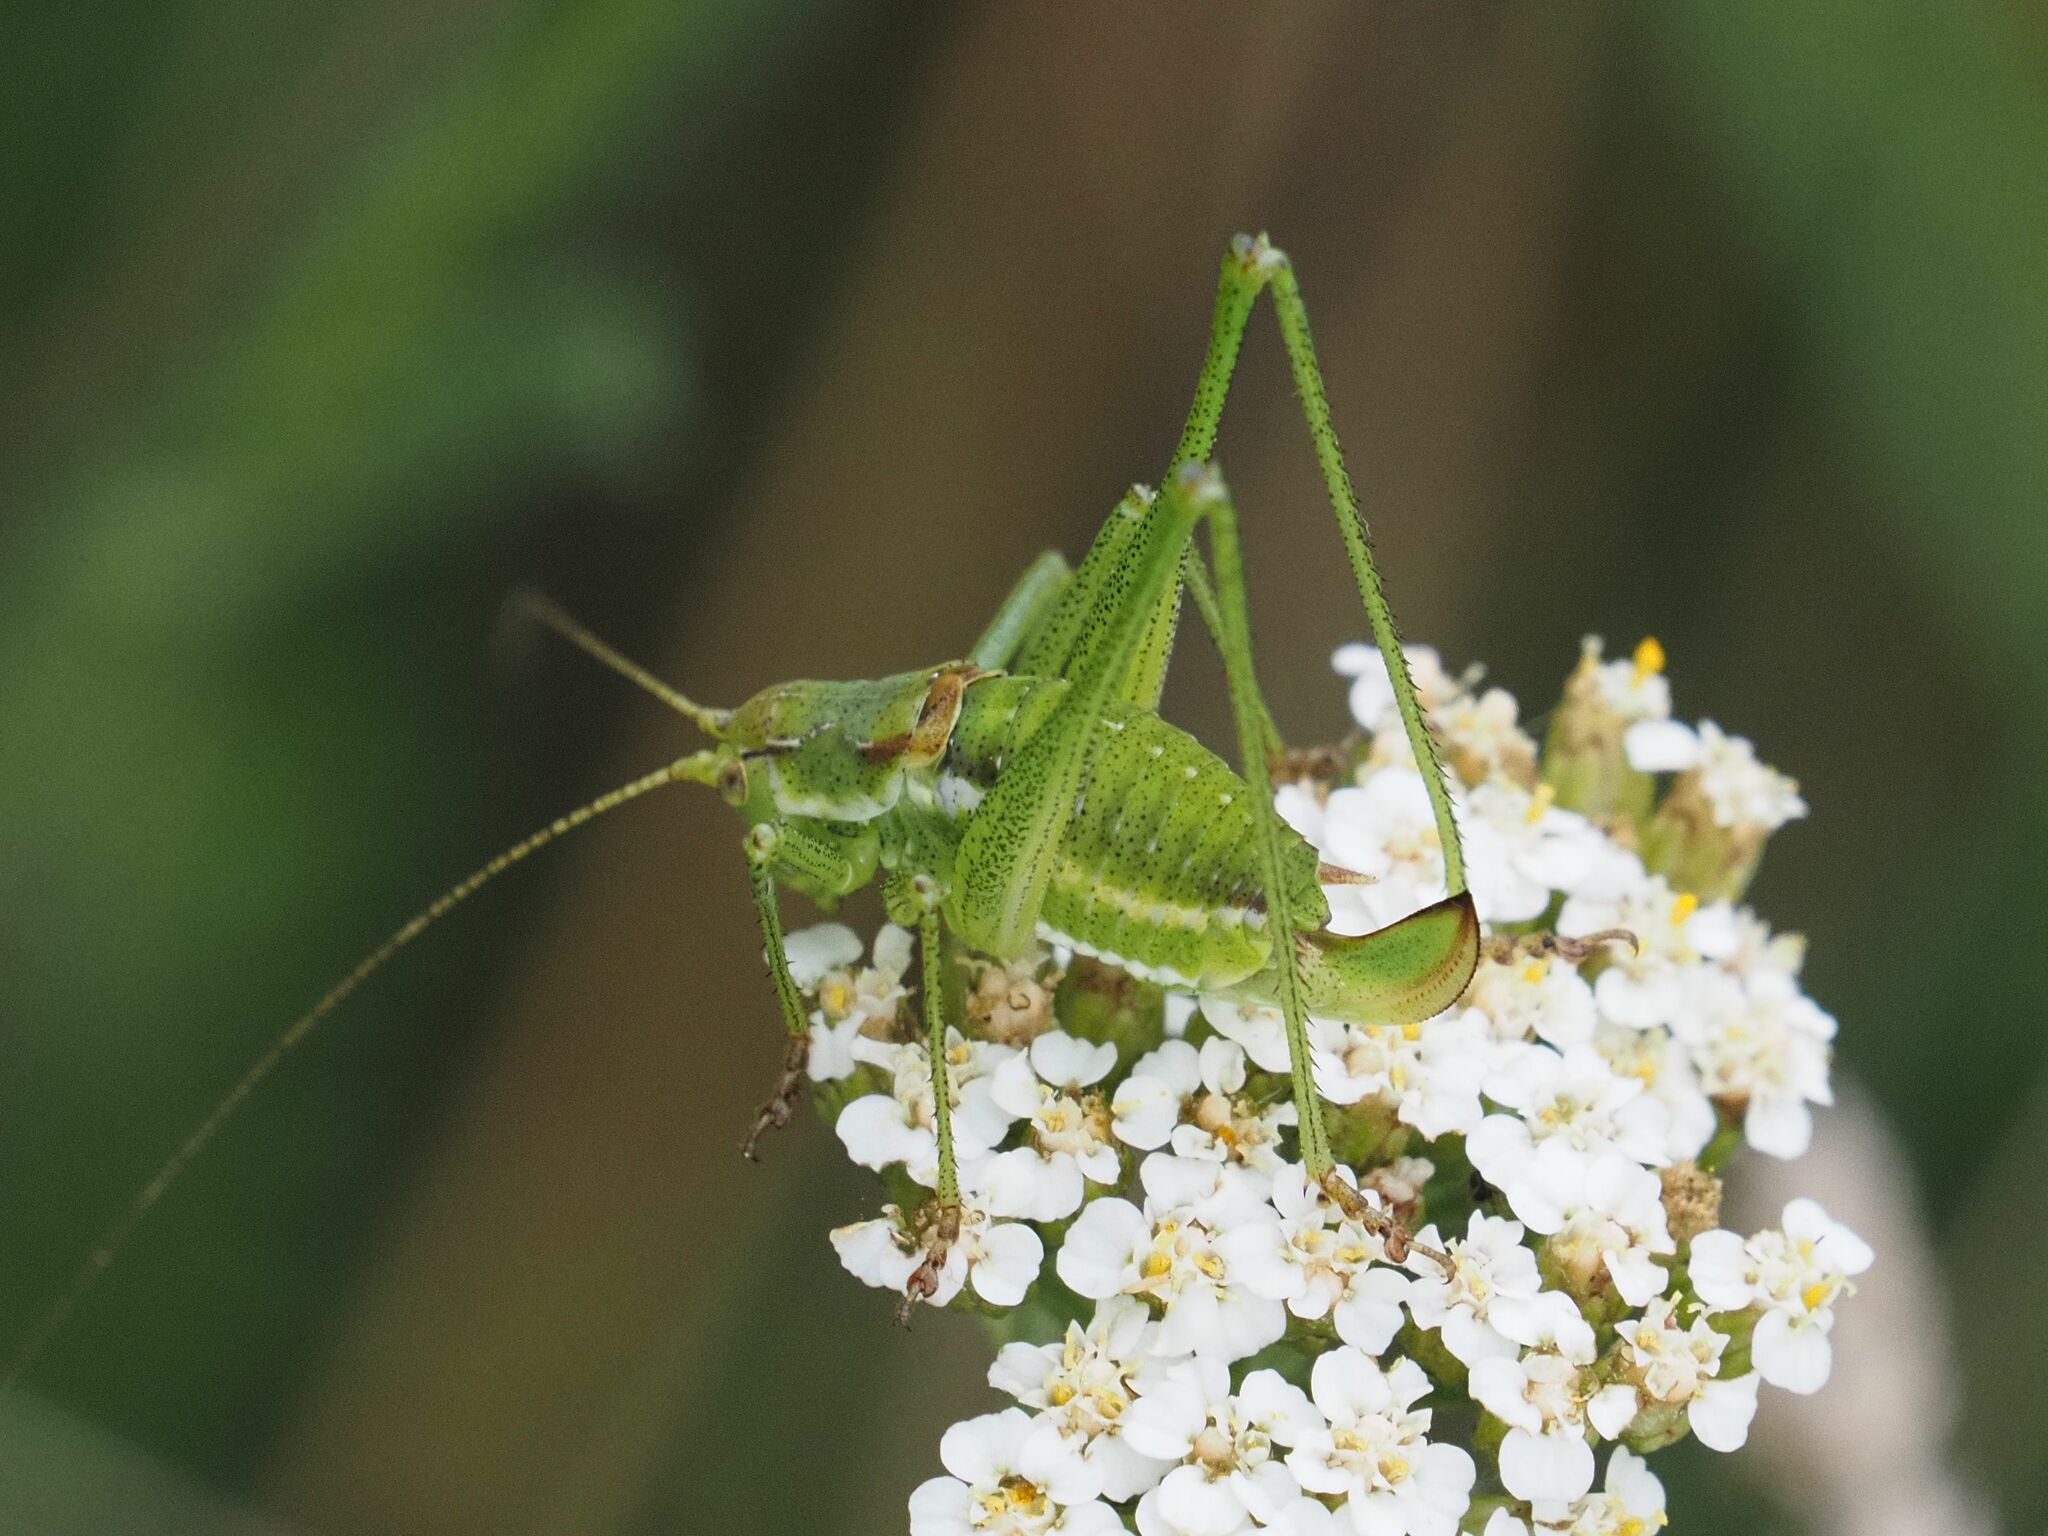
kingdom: Animalia
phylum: Arthropoda
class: Insecta
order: Orthoptera
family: Tettigoniidae
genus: Leptophyes
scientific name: Leptophyes albovittata
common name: Striped bush-cricket
